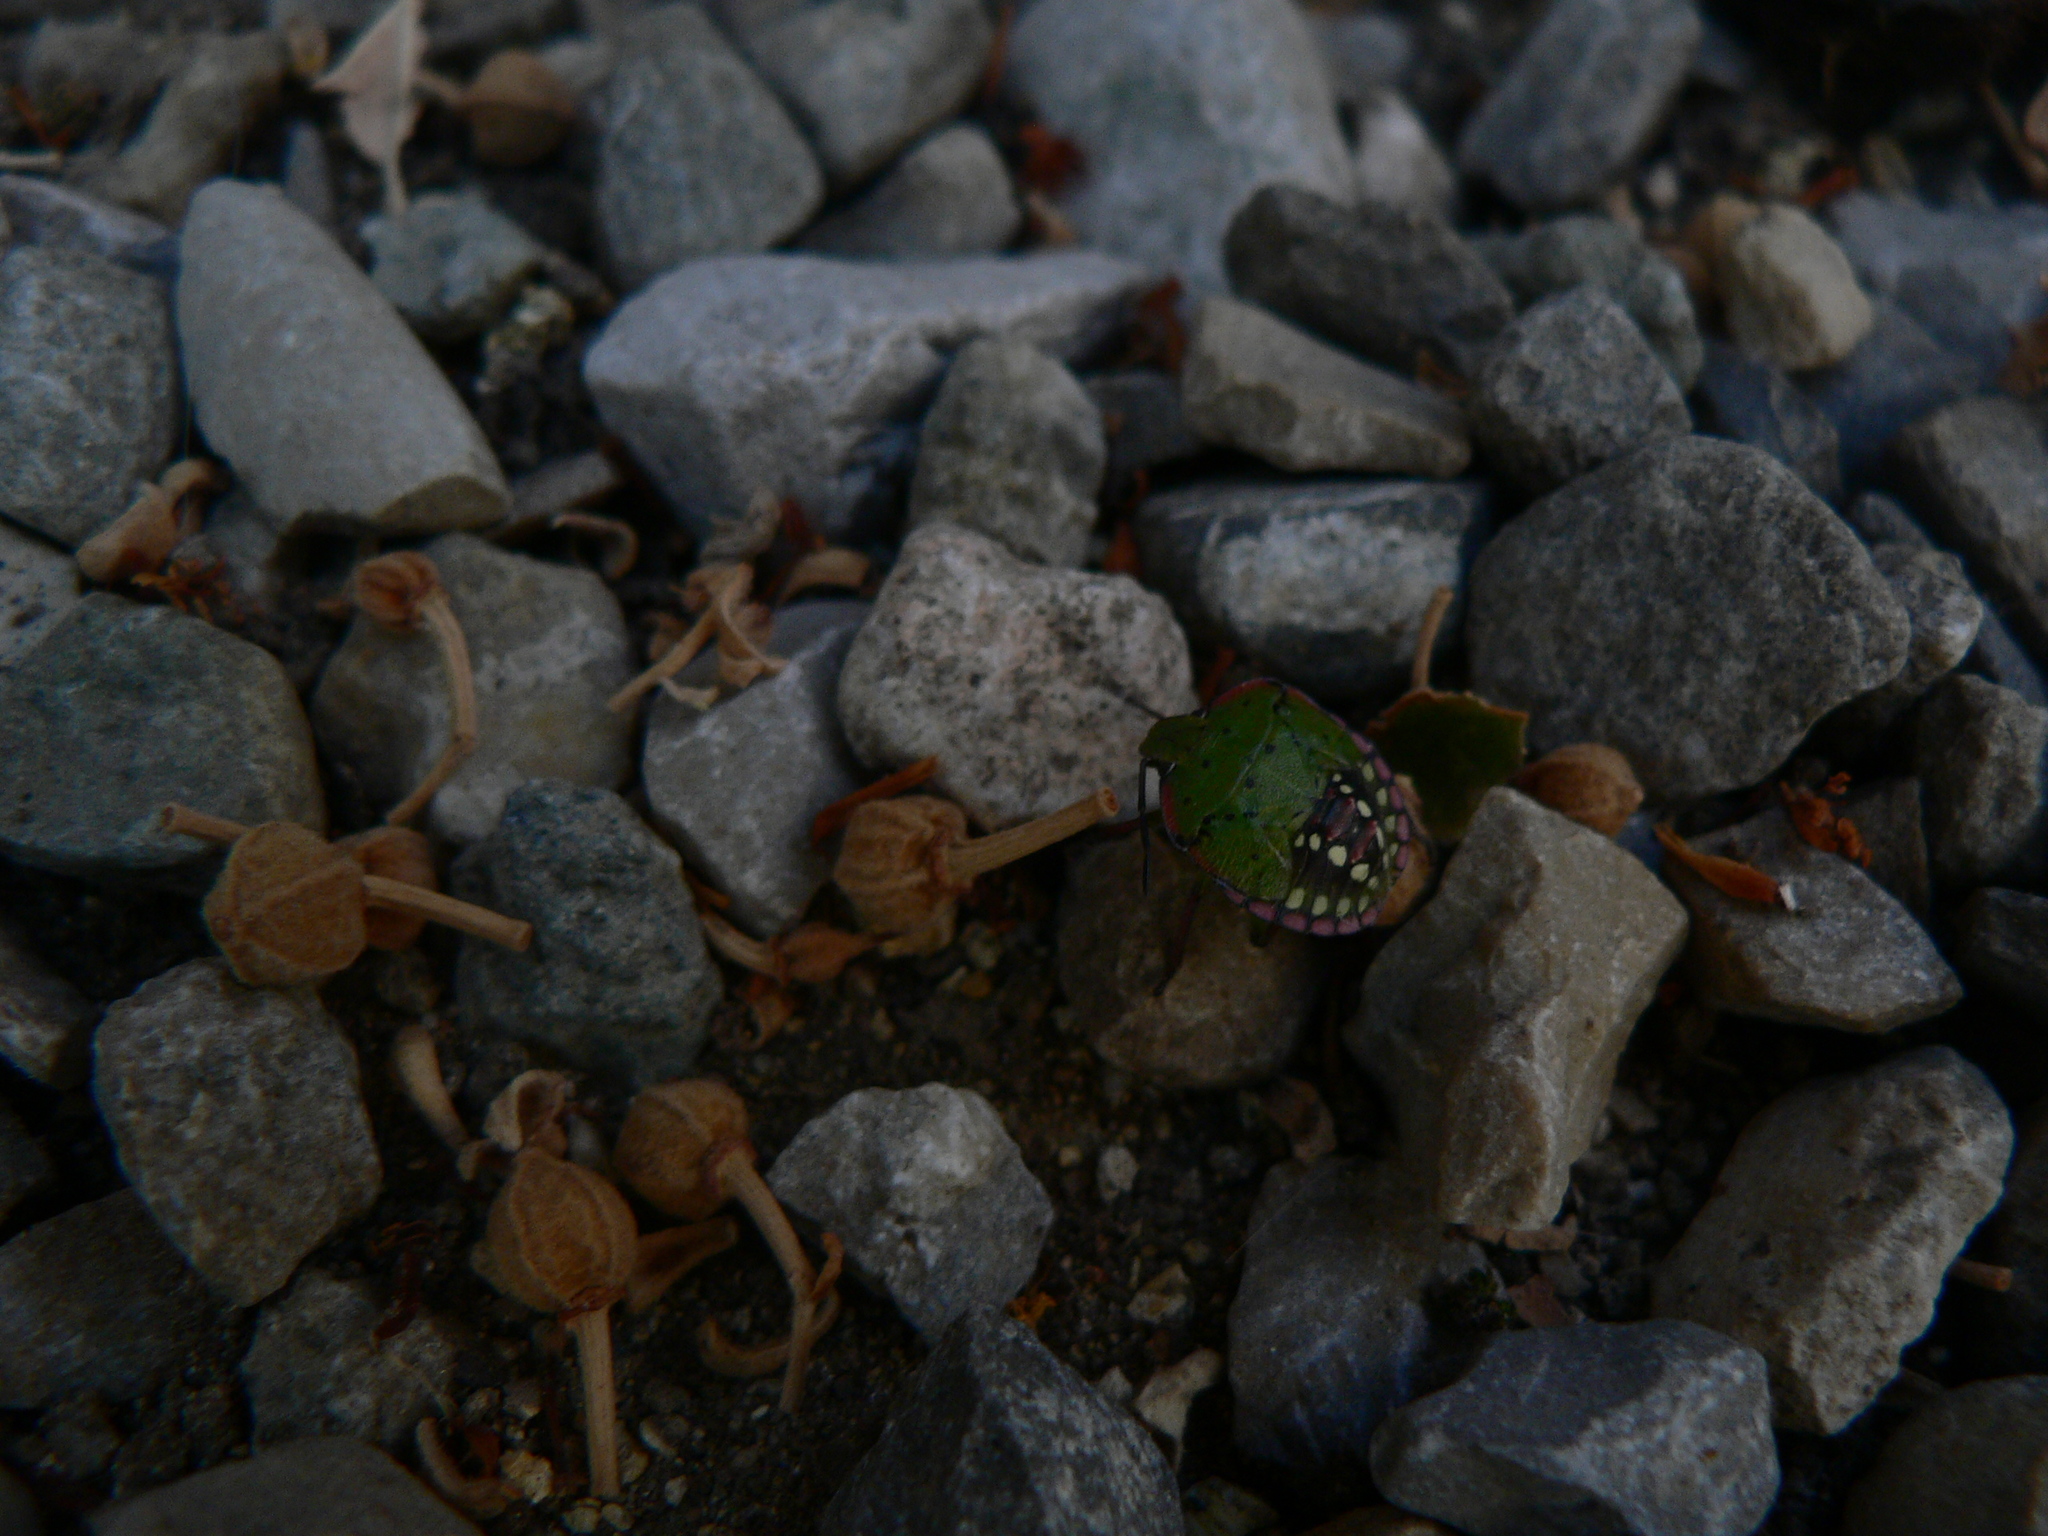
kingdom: Animalia
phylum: Arthropoda
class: Insecta
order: Hemiptera
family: Pentatomidae
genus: Nezara
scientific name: Nezara viridula
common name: Southern green stink bug
